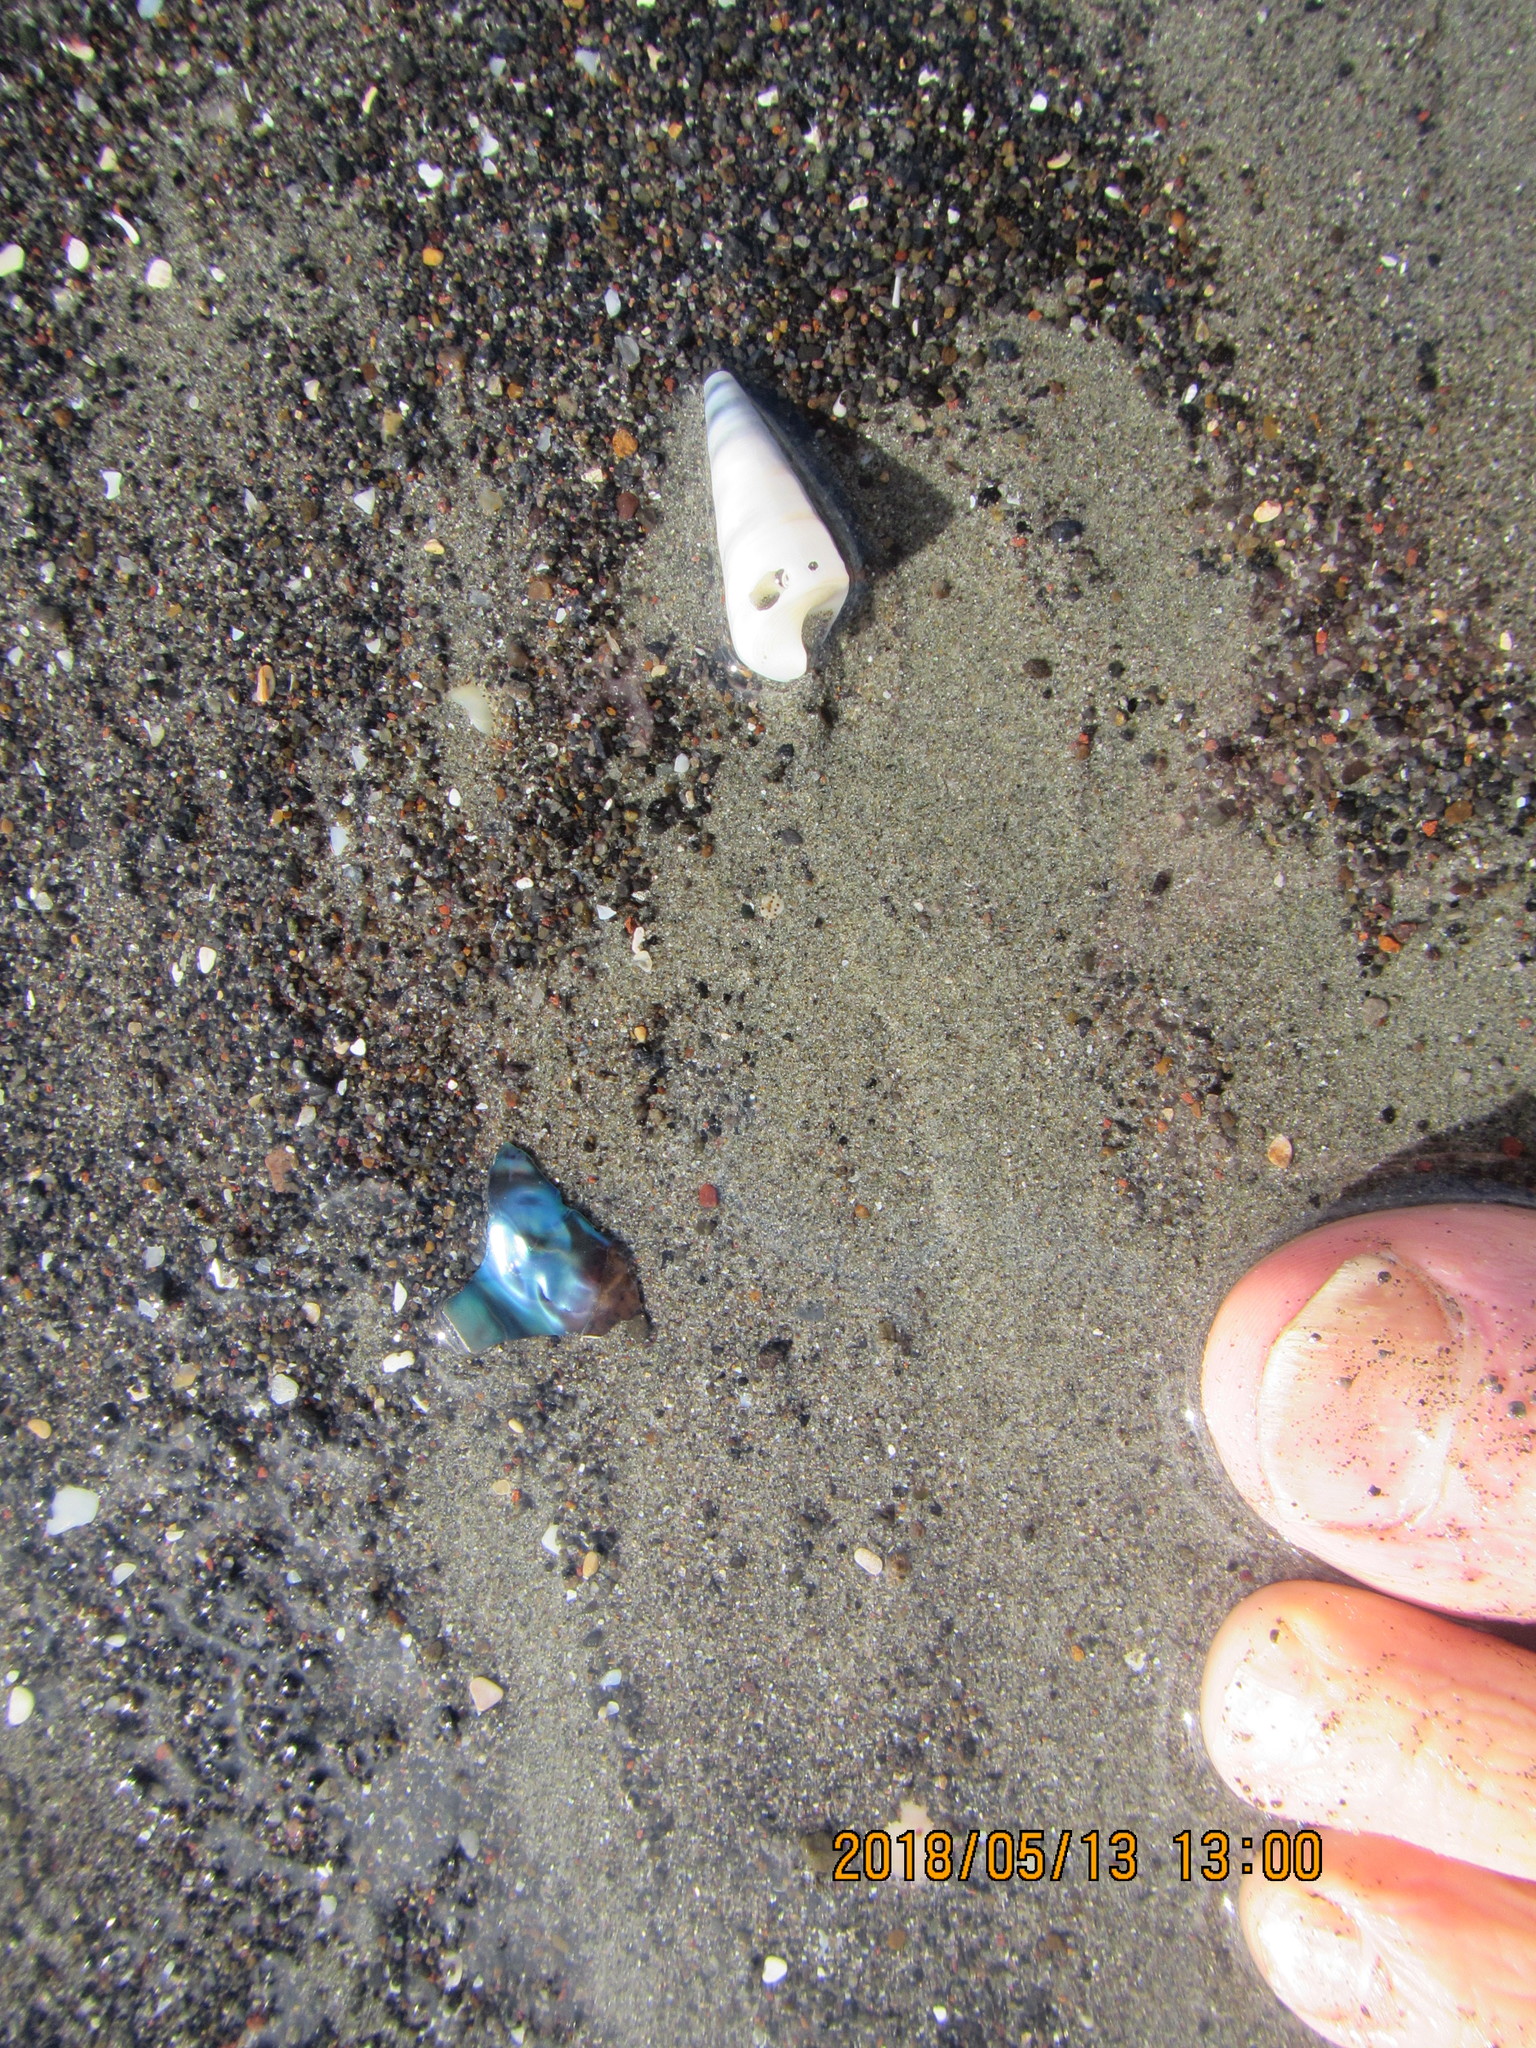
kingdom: Animalia
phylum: Mollusca
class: Gastropoda
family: Turritellidae
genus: Maoricolpus
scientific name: Maoricolpus roseus
